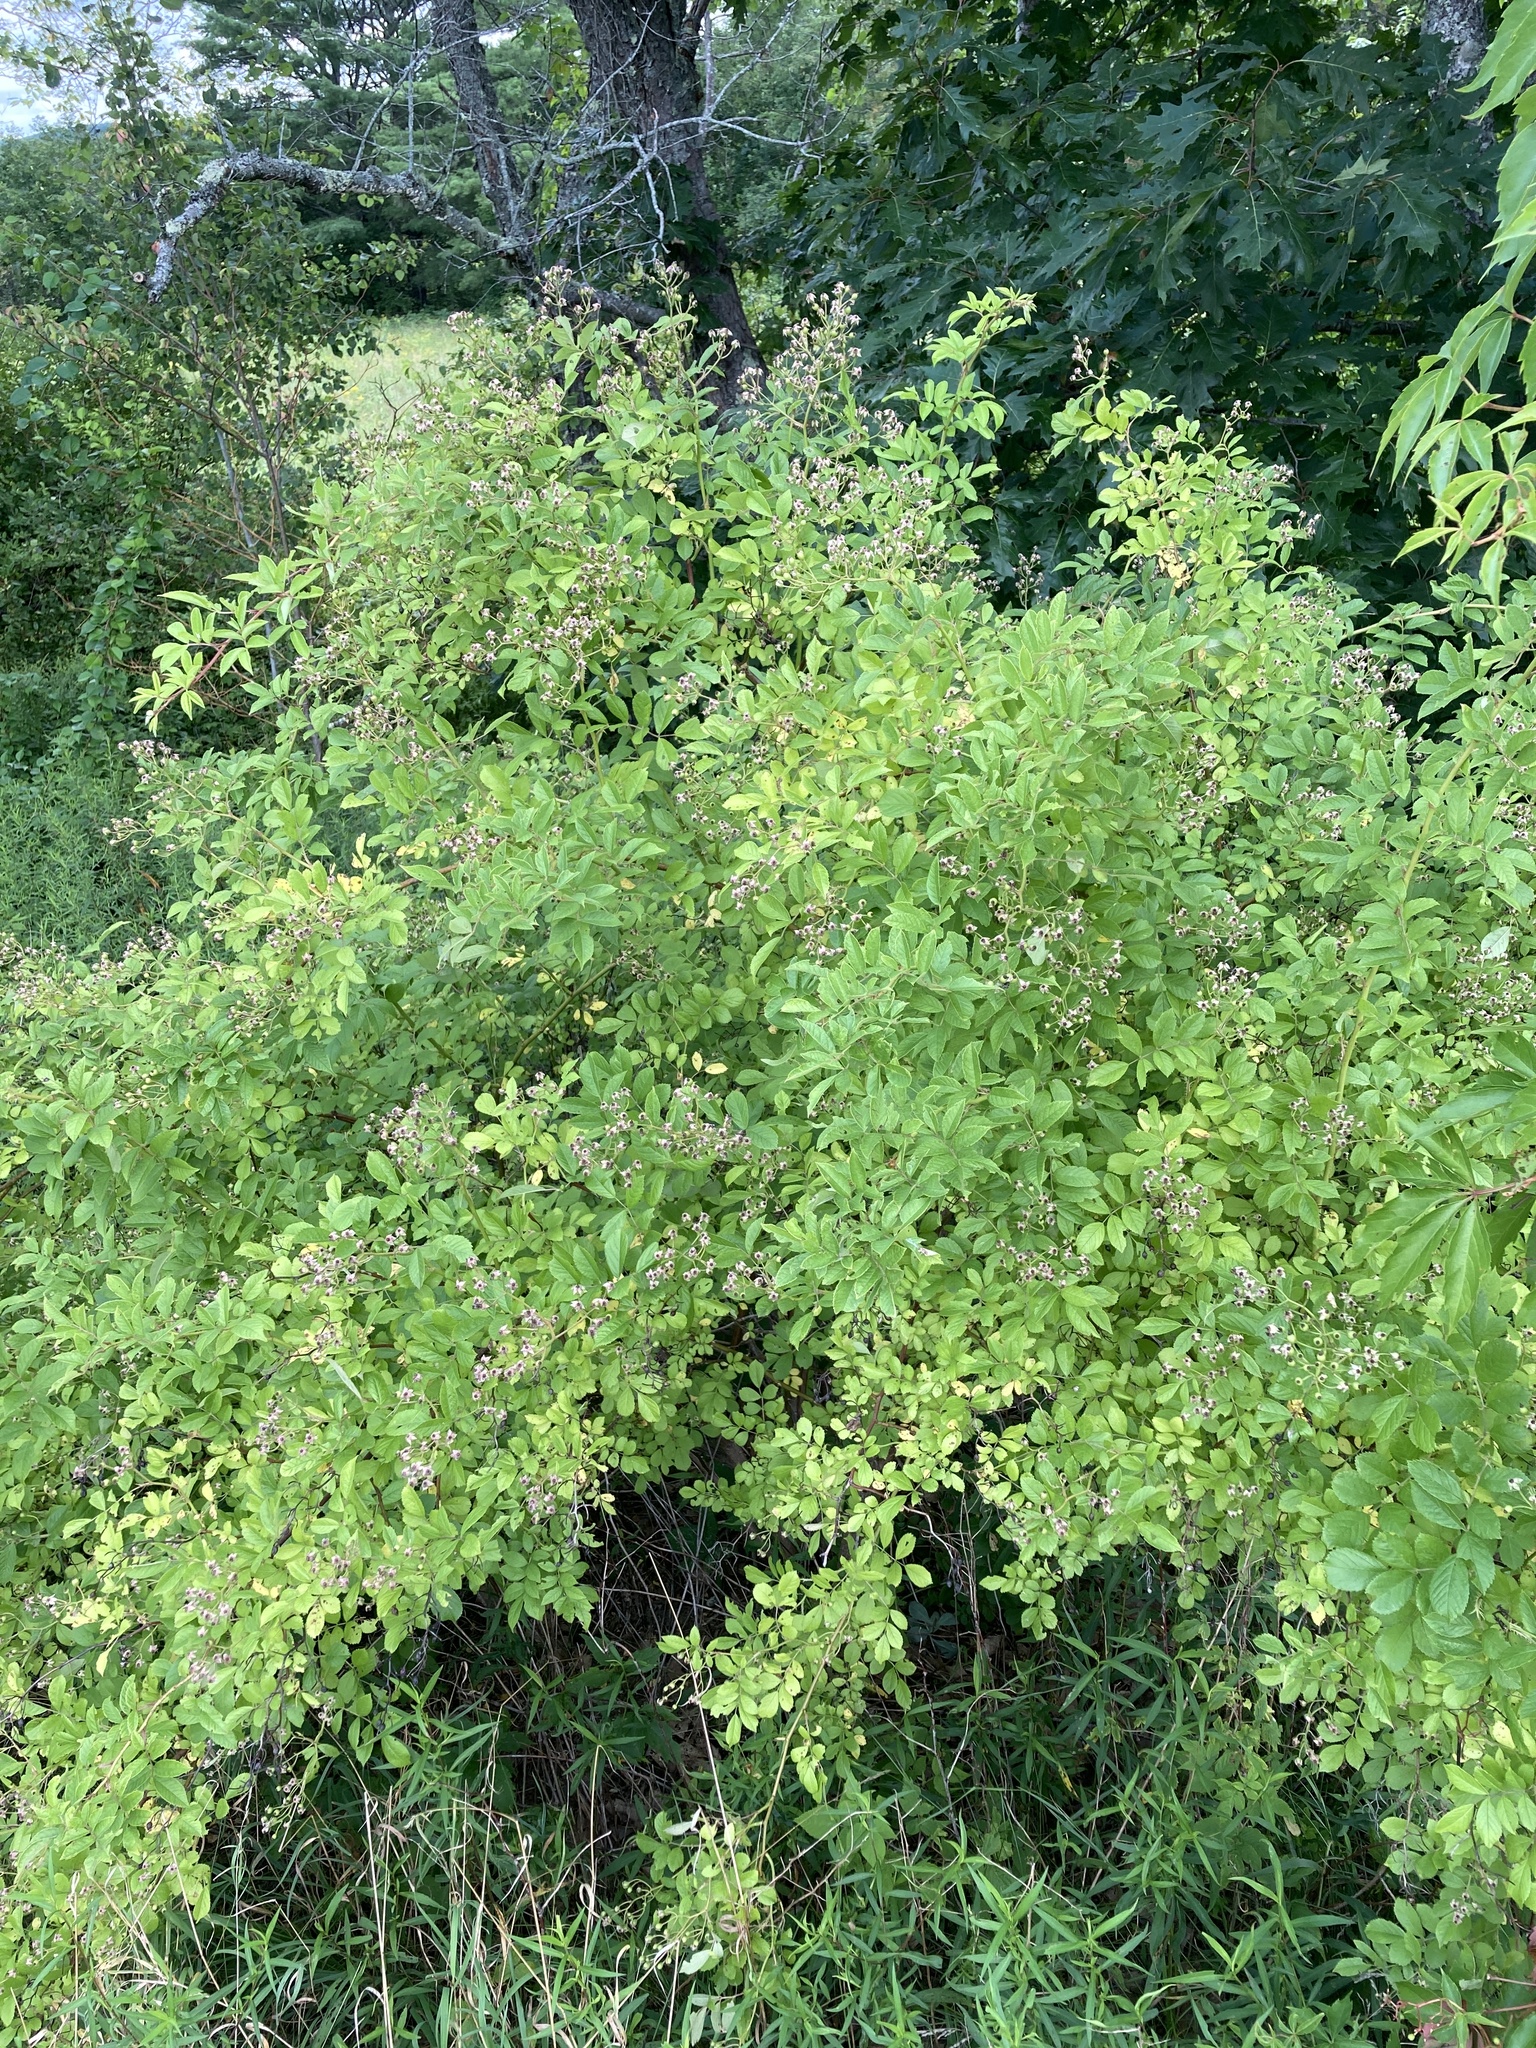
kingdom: Plantae
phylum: Tracheophyta
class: Magnoliopsida
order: Rosales
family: Rosaceae
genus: Rosa
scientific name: Rosa multiflora
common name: Multiflora rose
